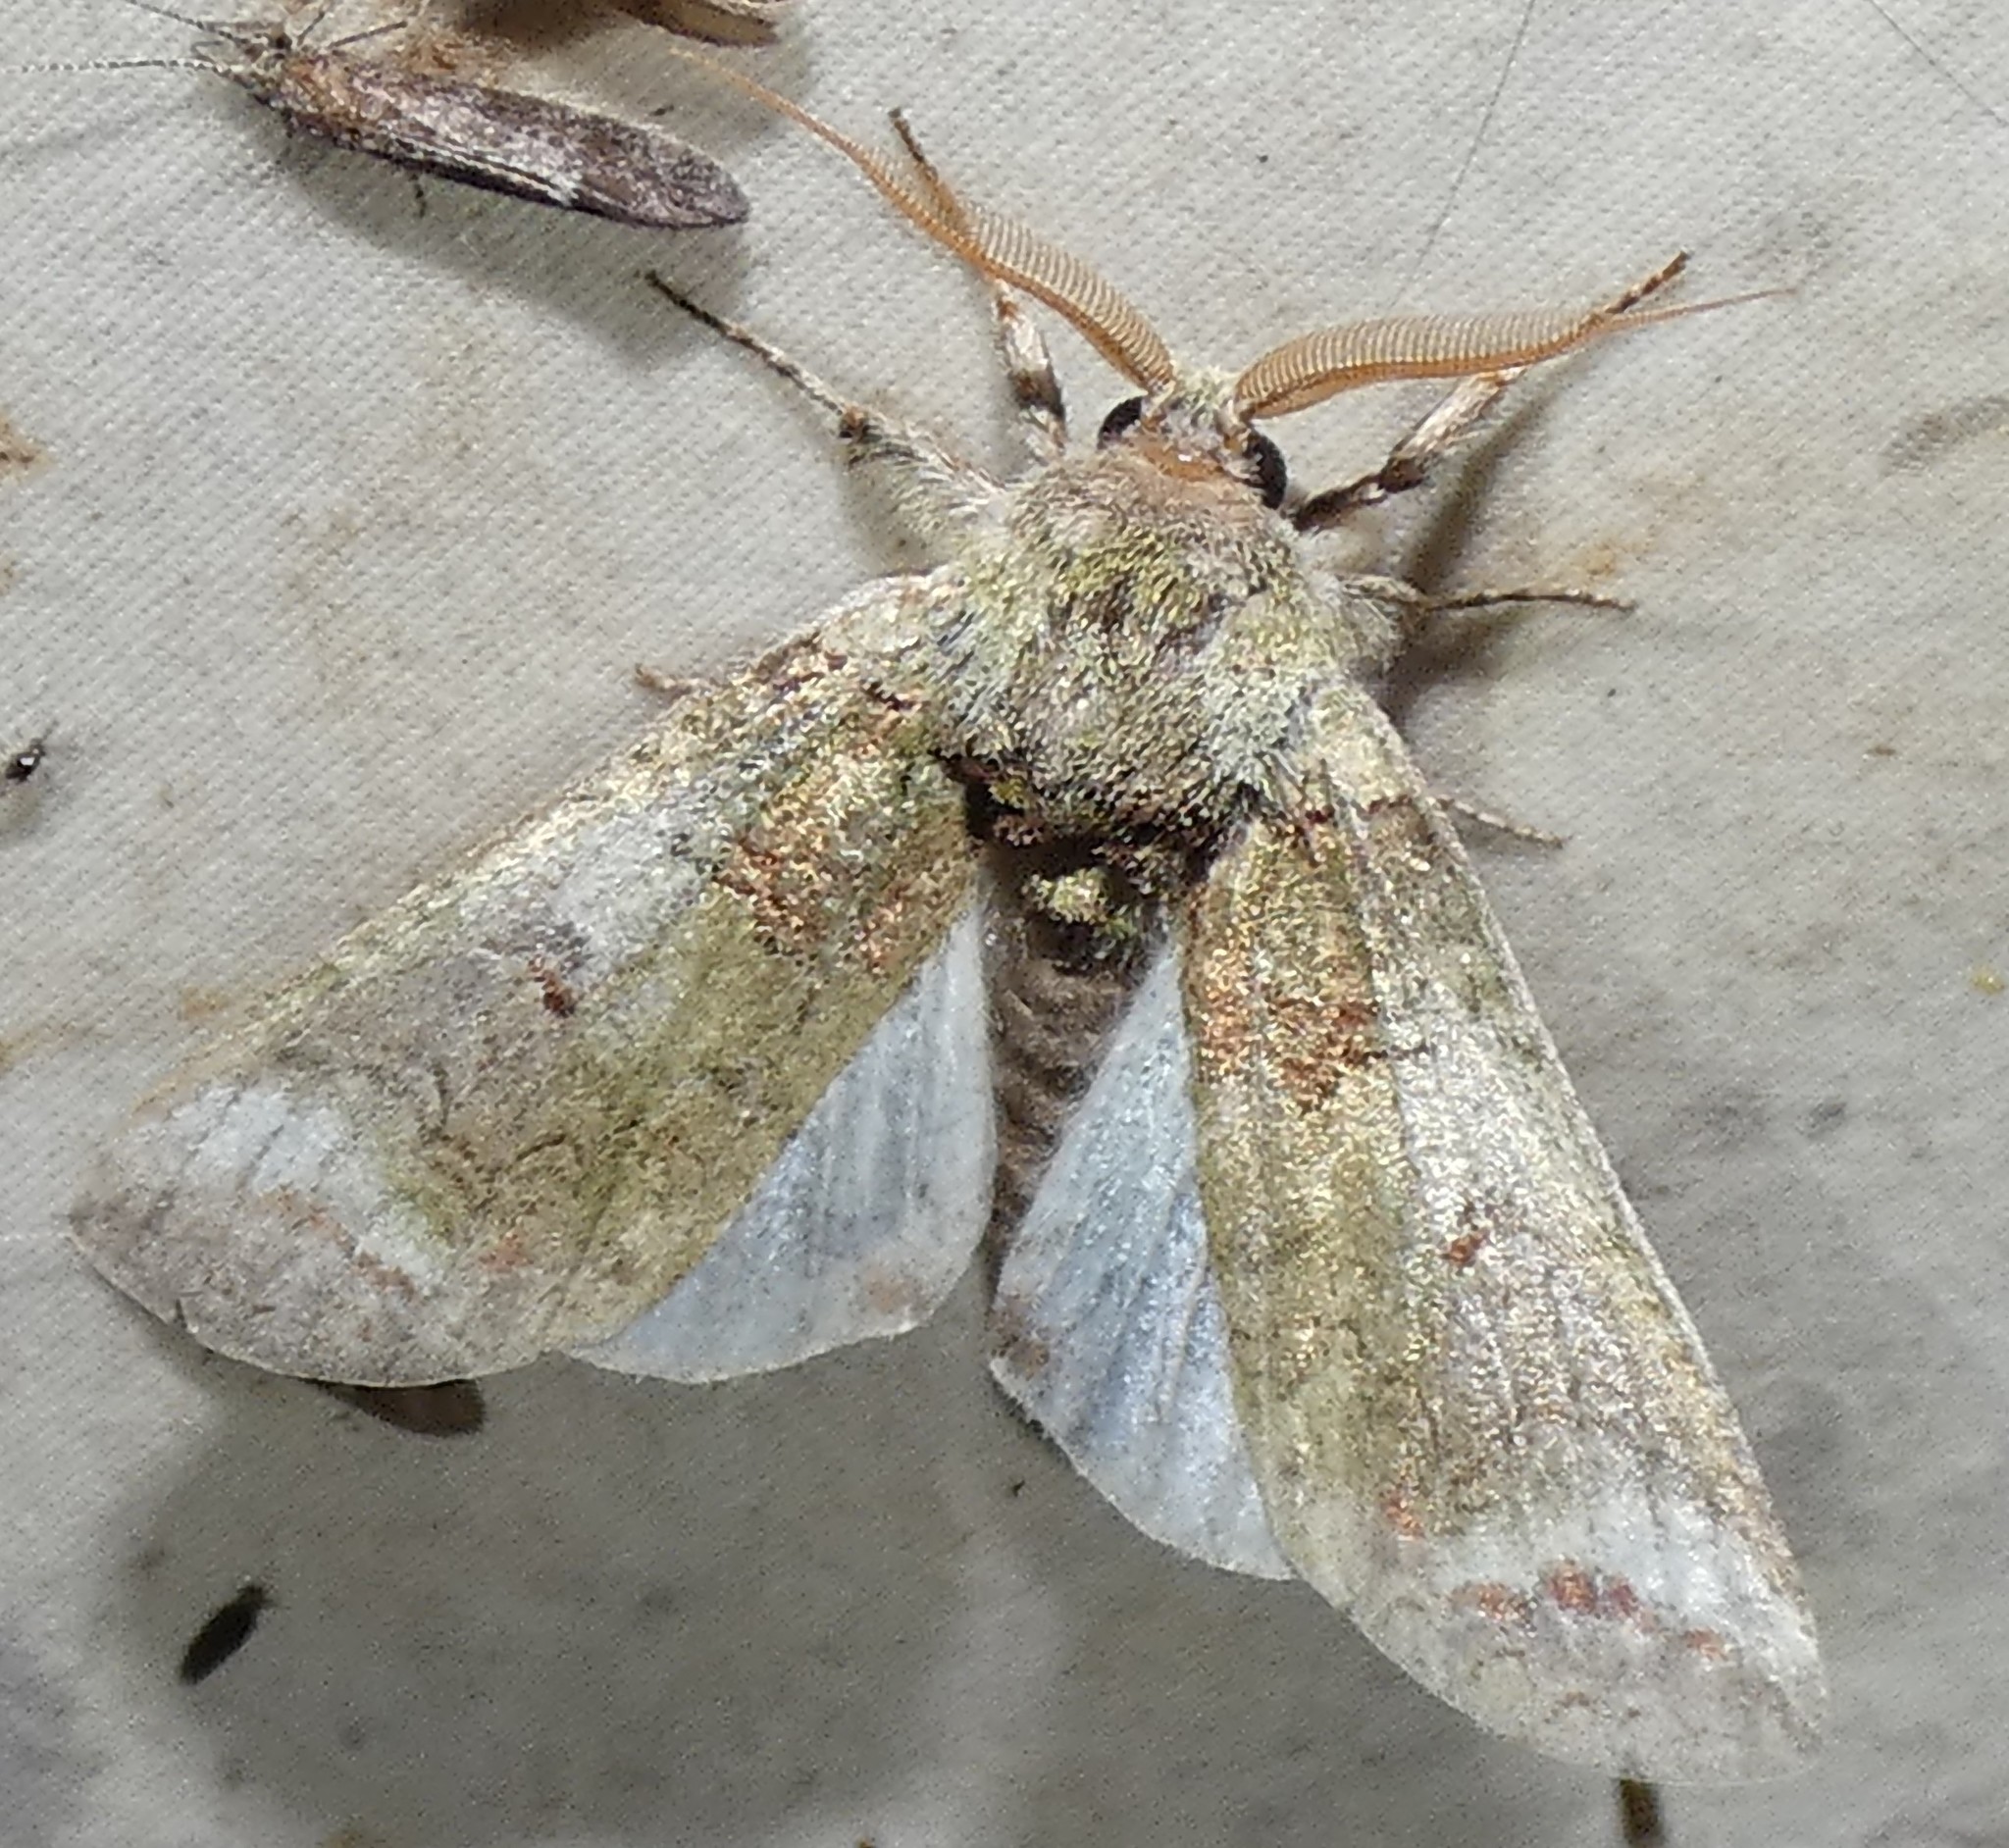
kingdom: Animalia
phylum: Arthropoda
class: Insecta
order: Lepidoptera
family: Notodontidae
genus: Heterocampa
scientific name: Heterocampa astarte
